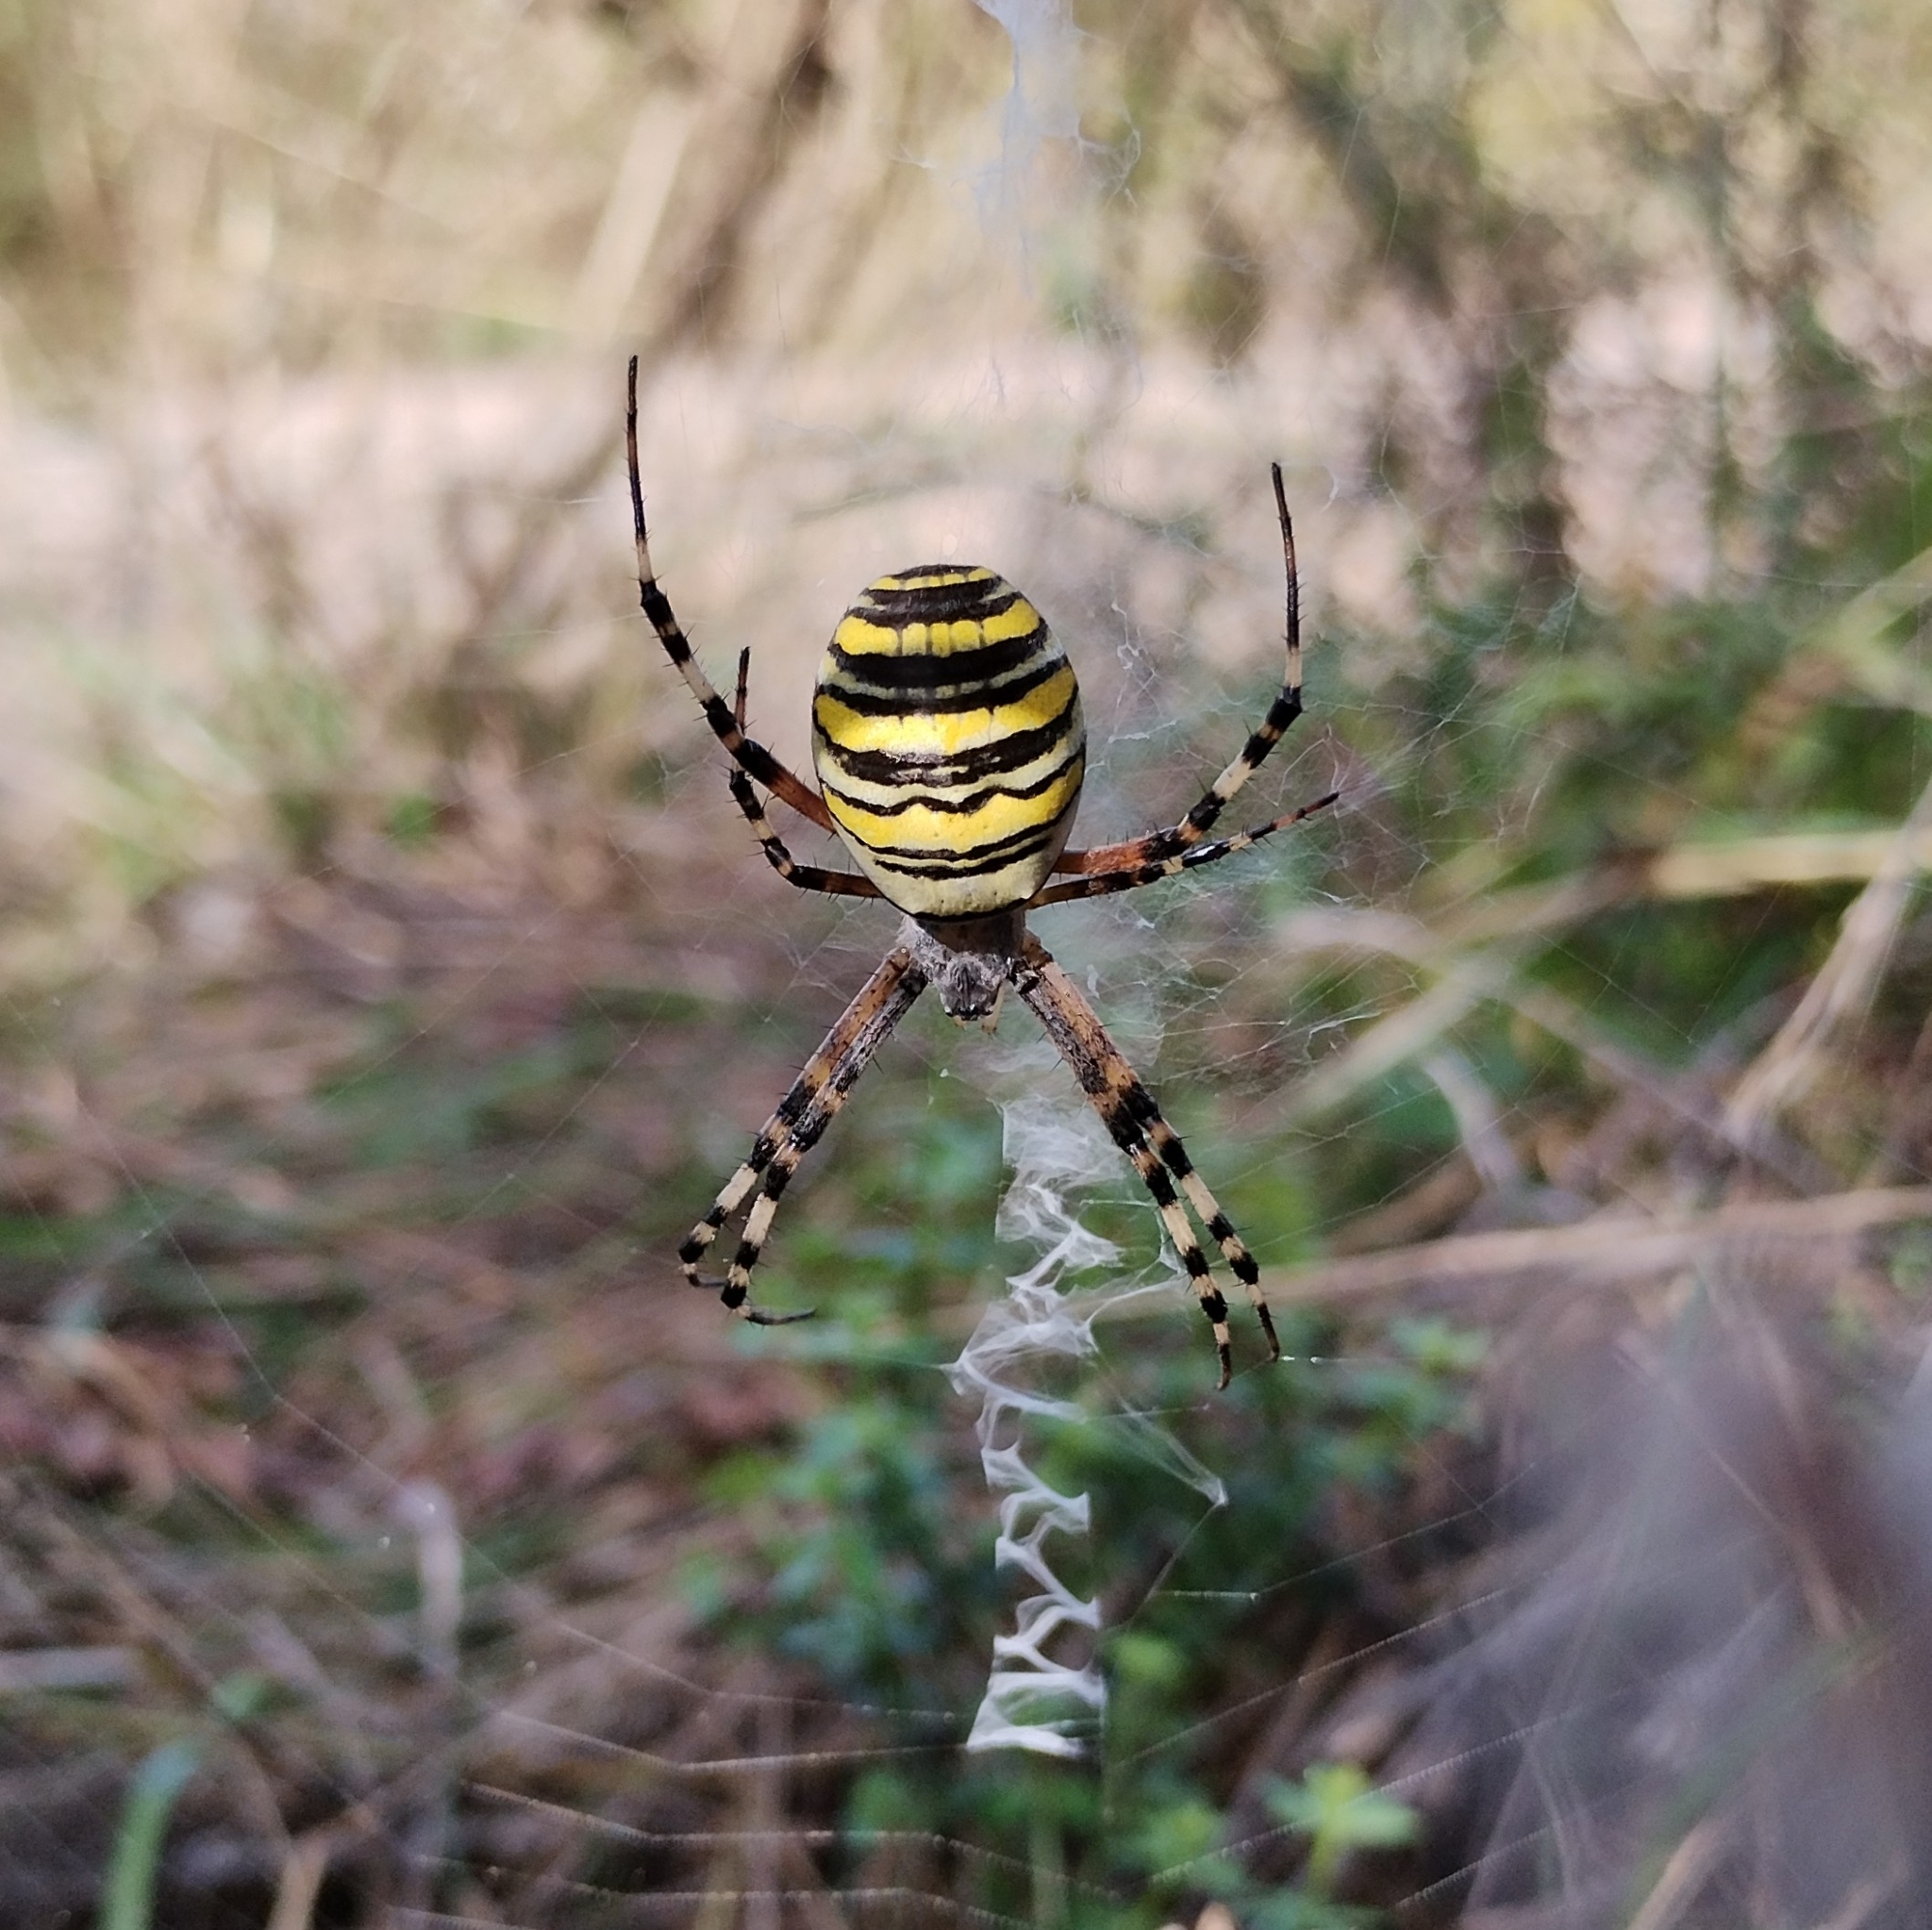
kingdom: Animalia
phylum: Arthropoda
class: Arachnida
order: Araneae
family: Araneidae
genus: Argiope
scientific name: Argiope bruennichi
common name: Wasp spider
